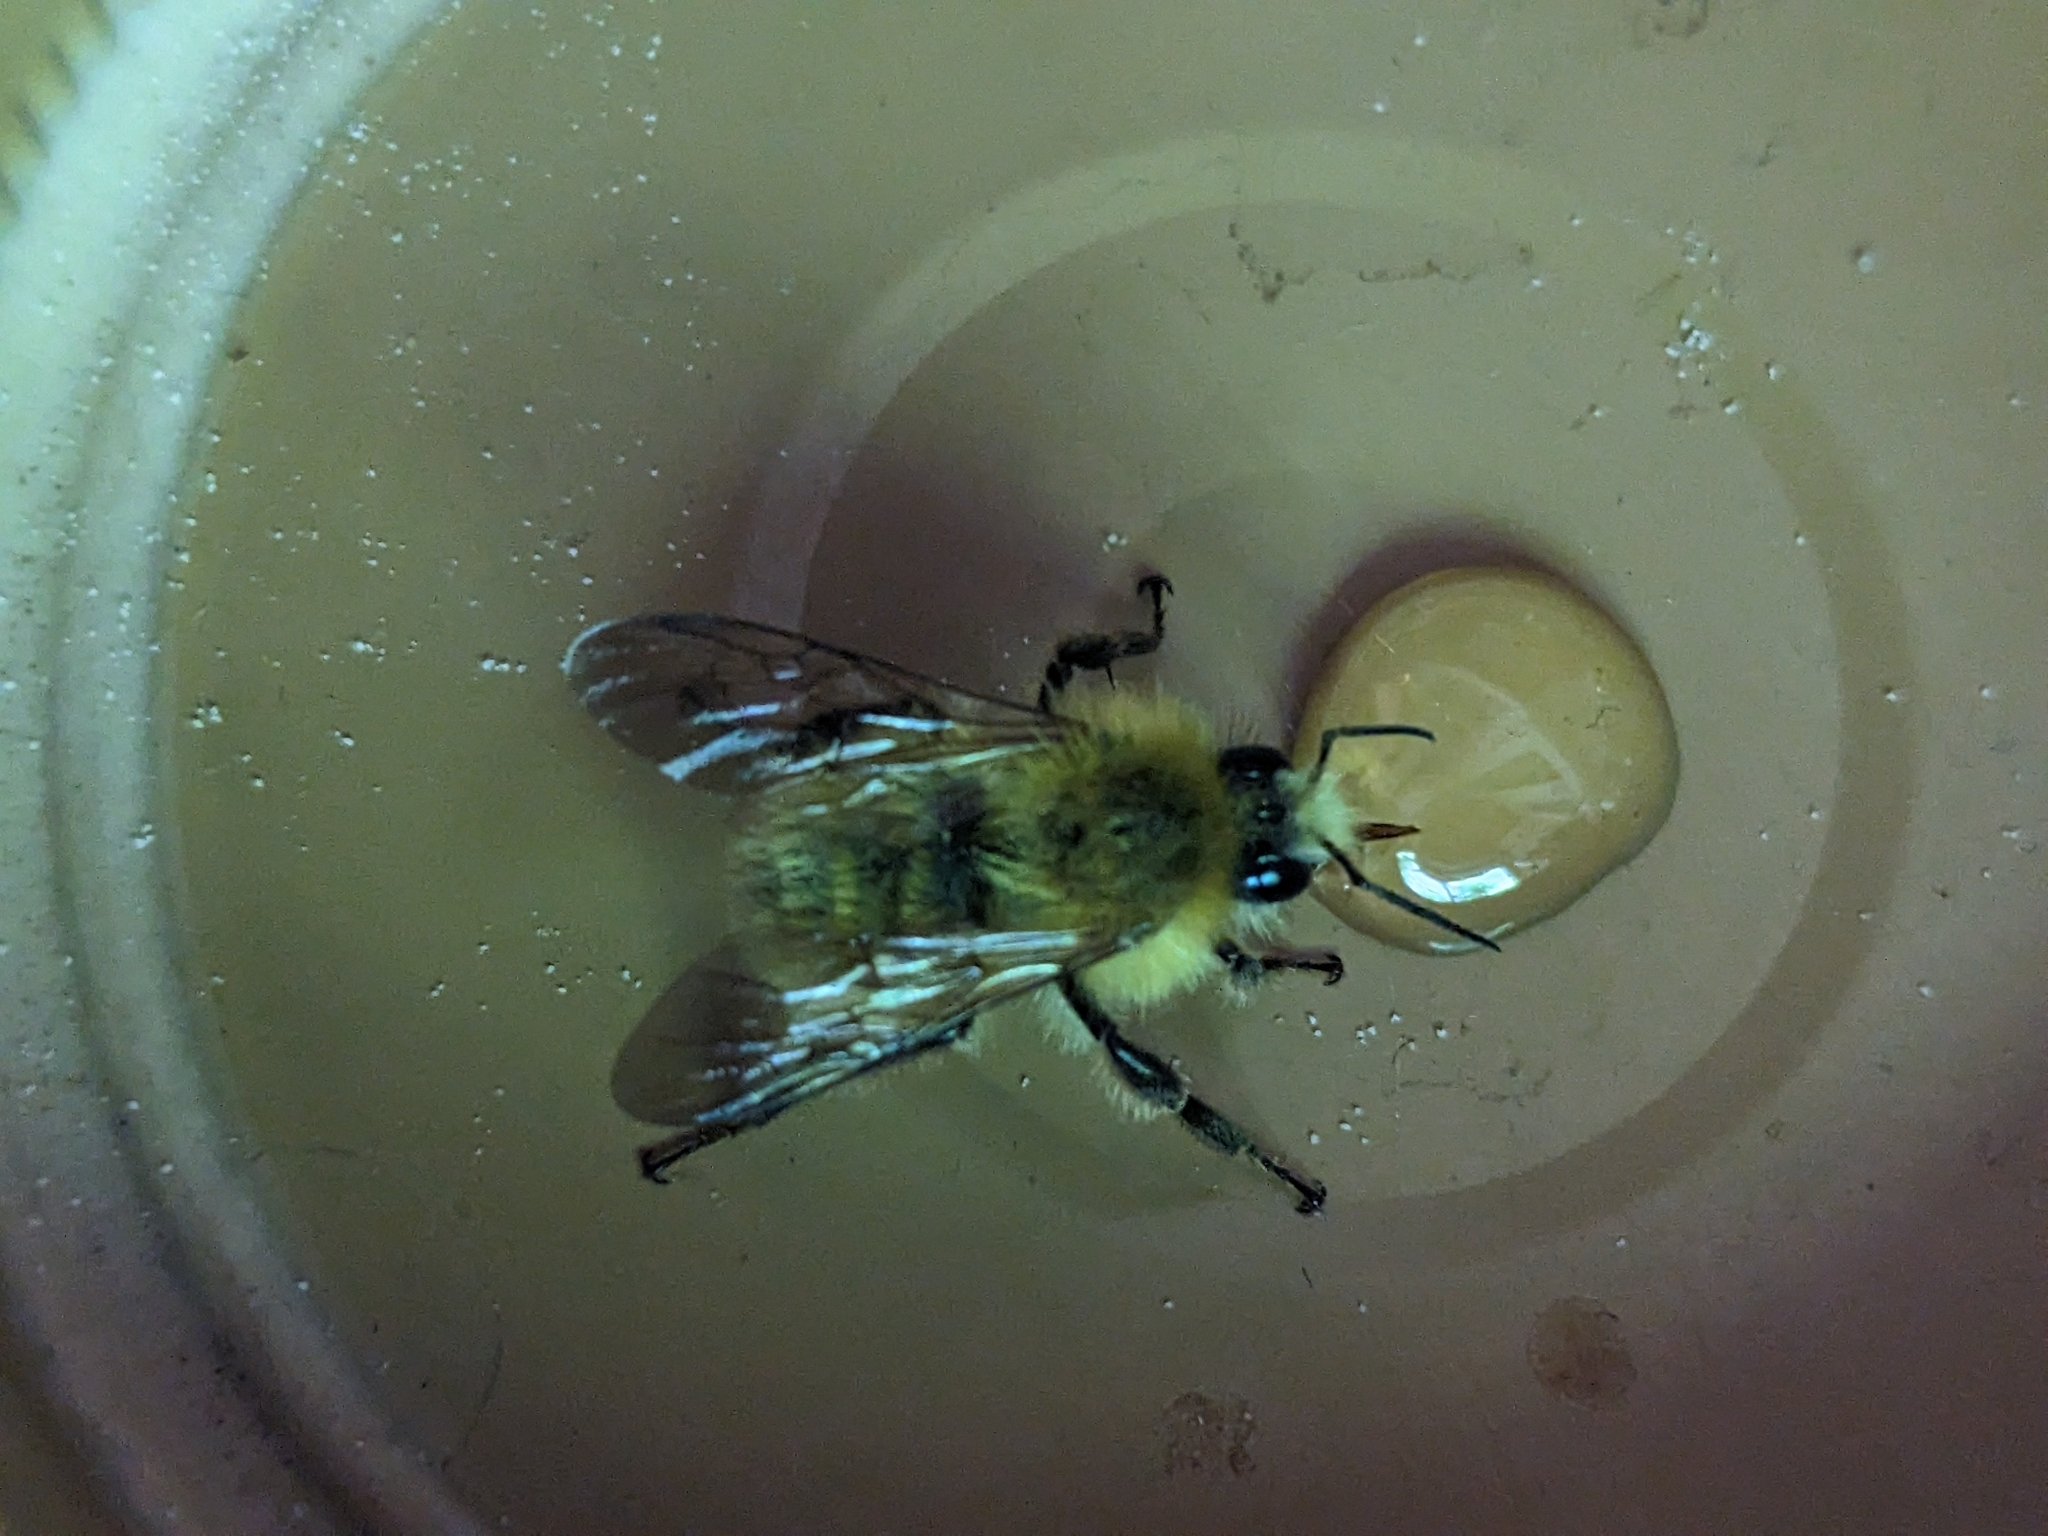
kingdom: Animalia
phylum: Arthropoda
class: Insecta
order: Hymenoptera
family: Apidae
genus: Bombus
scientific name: Bombus perplexus
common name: Confusing bumble bee
